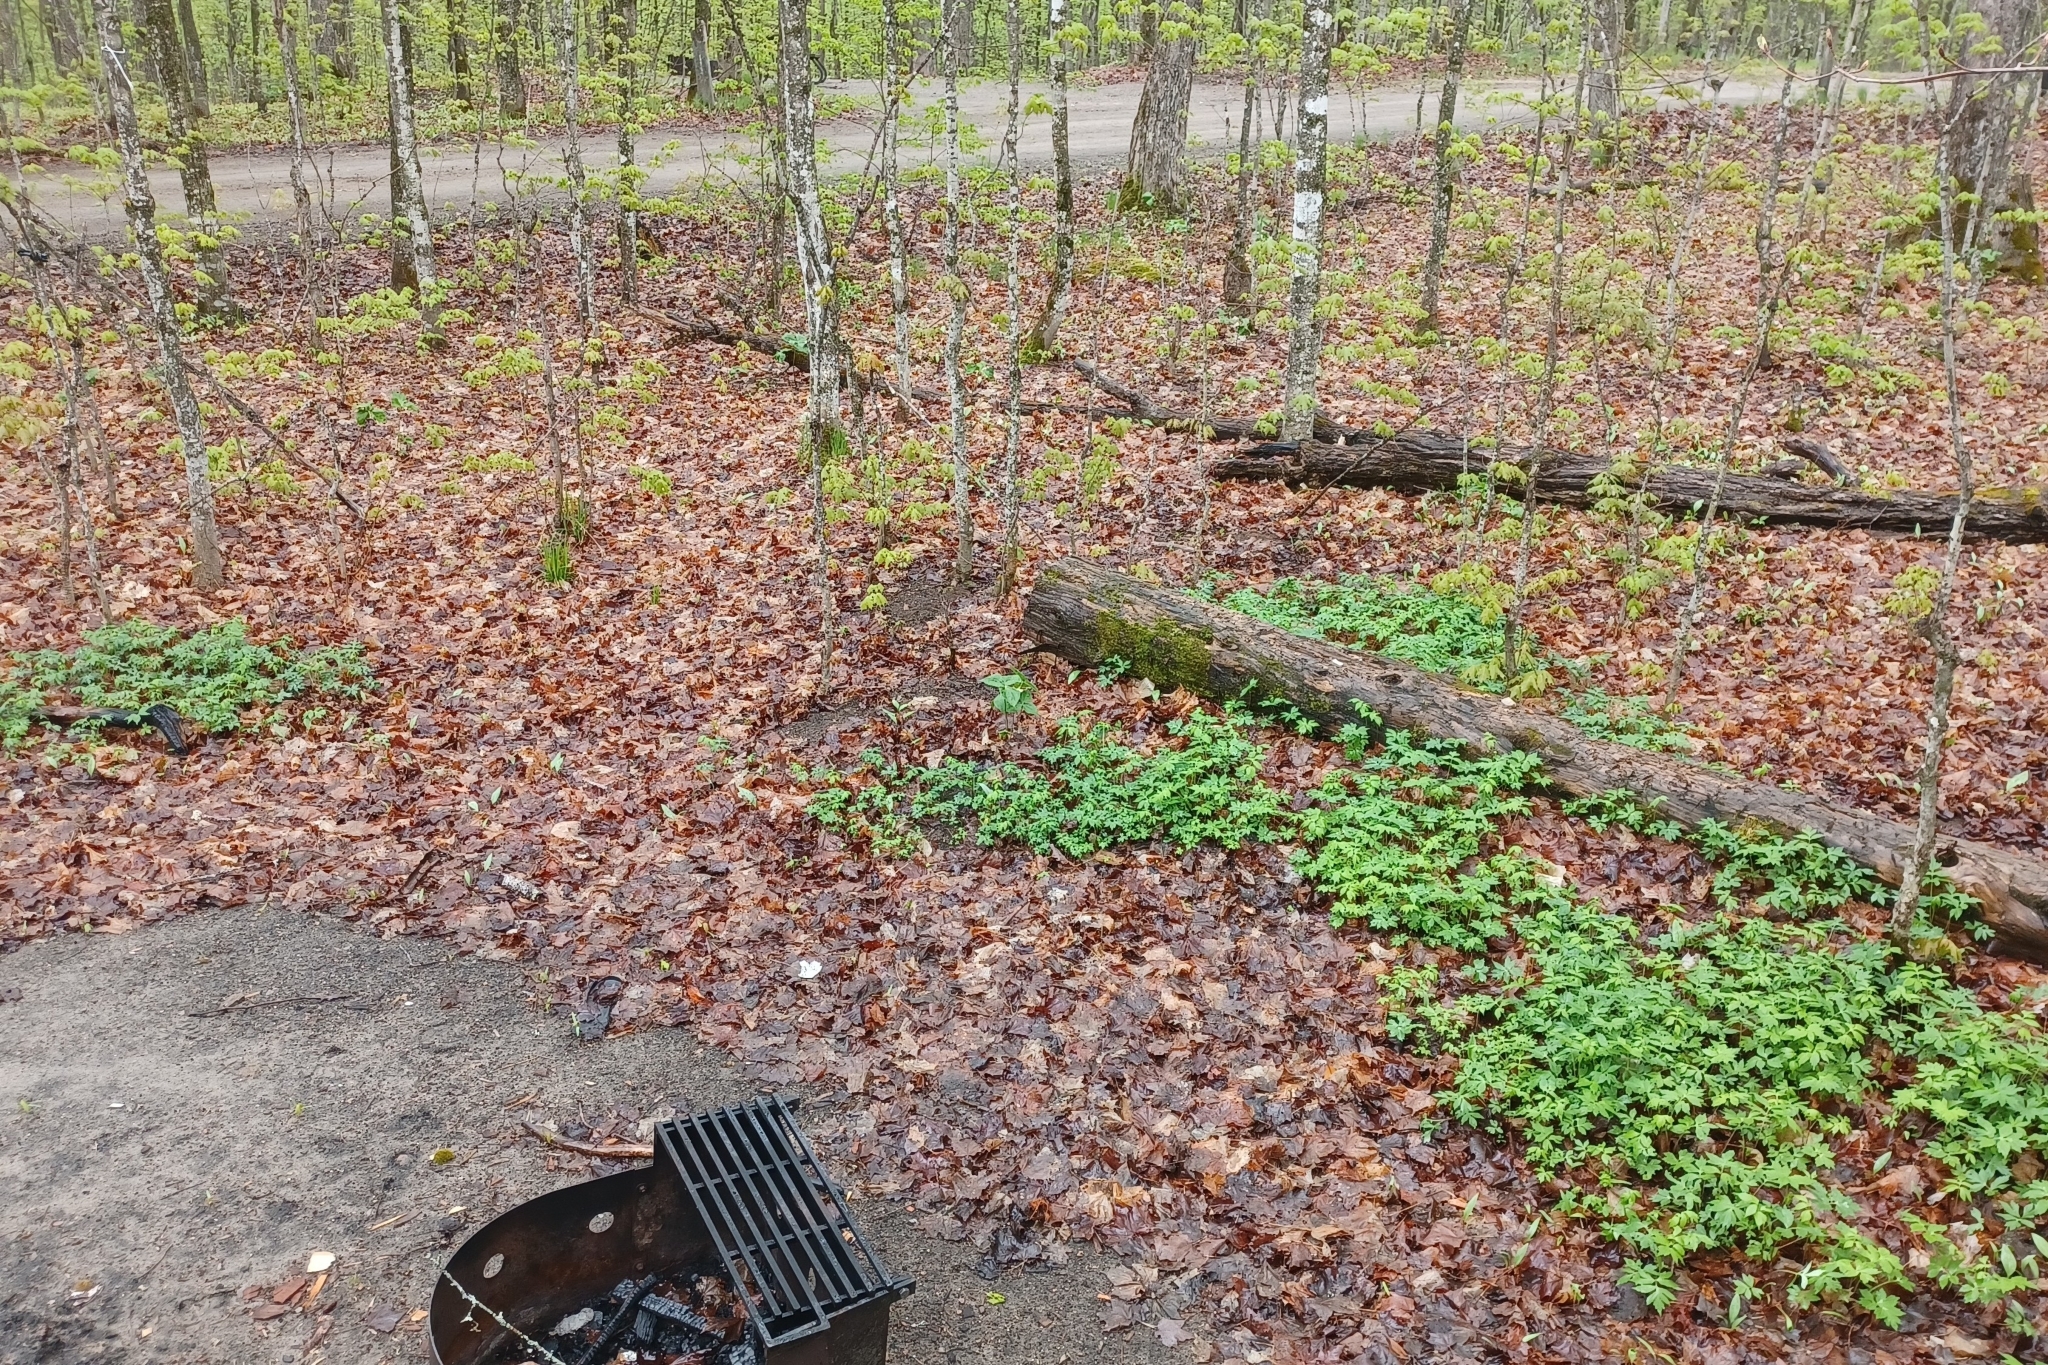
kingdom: Plantae
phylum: Tracheophyta
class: Magnoliopsida
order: Boraginales
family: Hydrophyllaceae
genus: Hydrophyllum
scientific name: Hydrophyllum virginianum
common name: Virginia waterleaf
